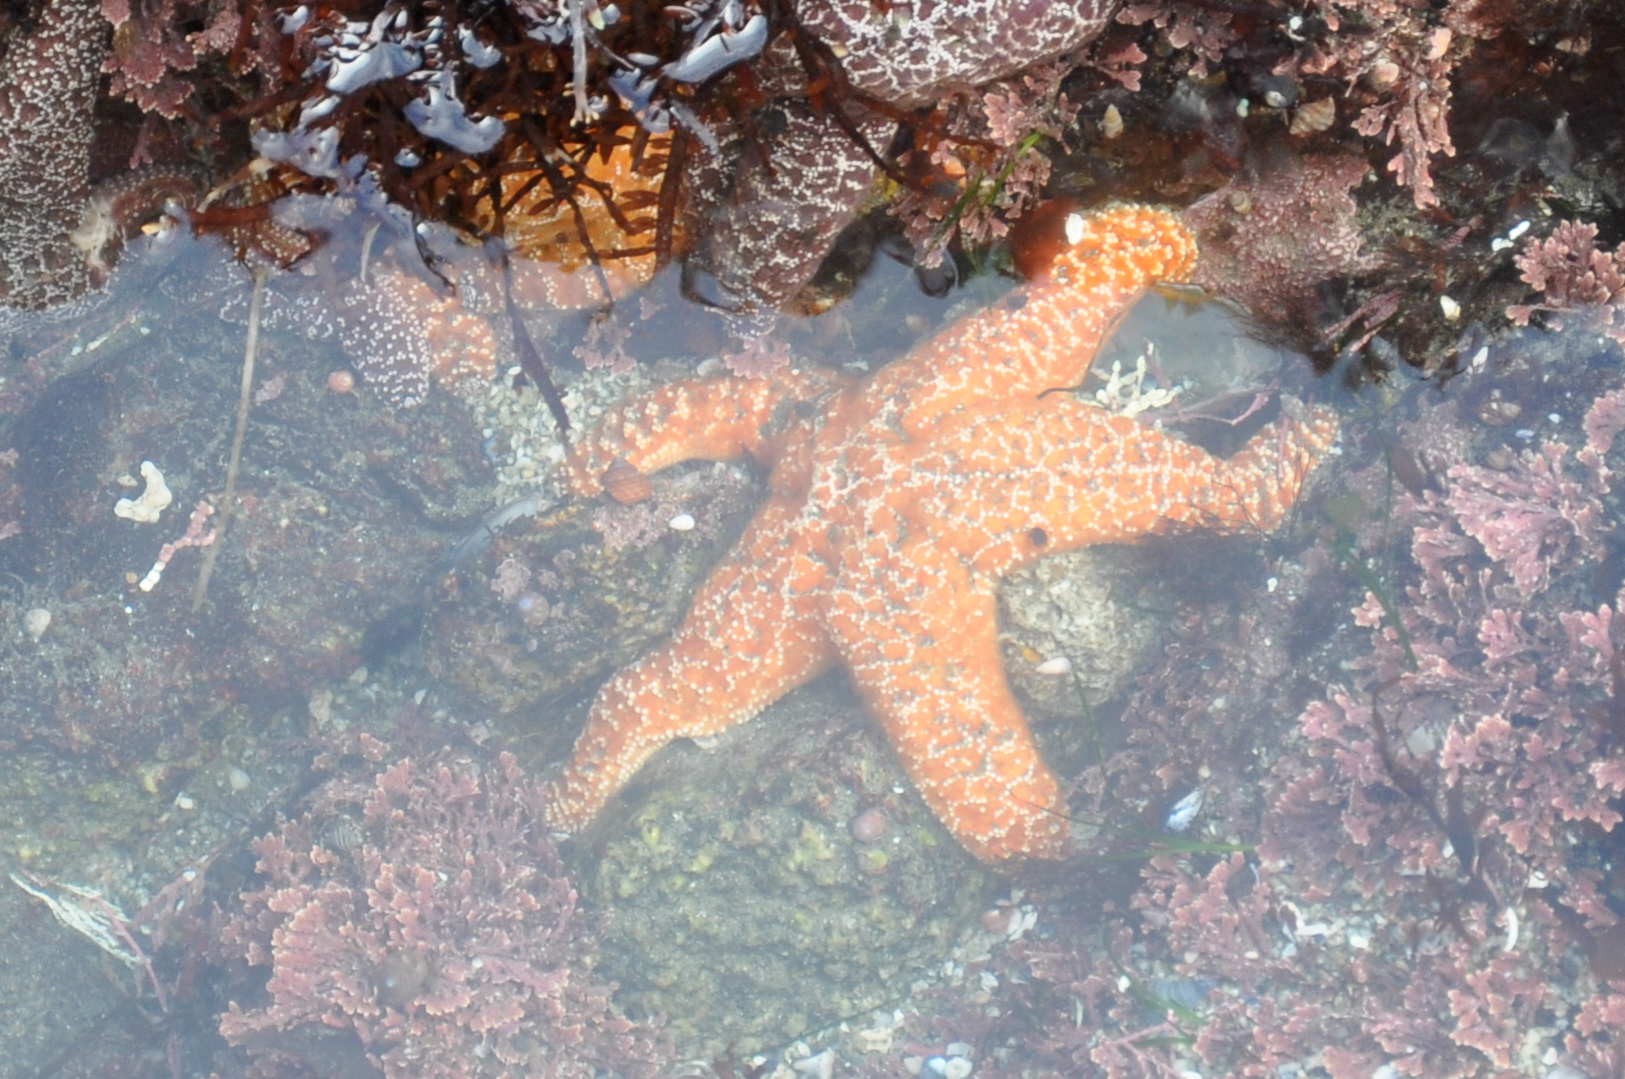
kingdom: Animalia
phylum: Echinodermata
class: Asteroidea
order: Forcipulatida
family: Asteriidae
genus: Pisaster
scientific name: Pisaster ochraceus
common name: Ochre stars
